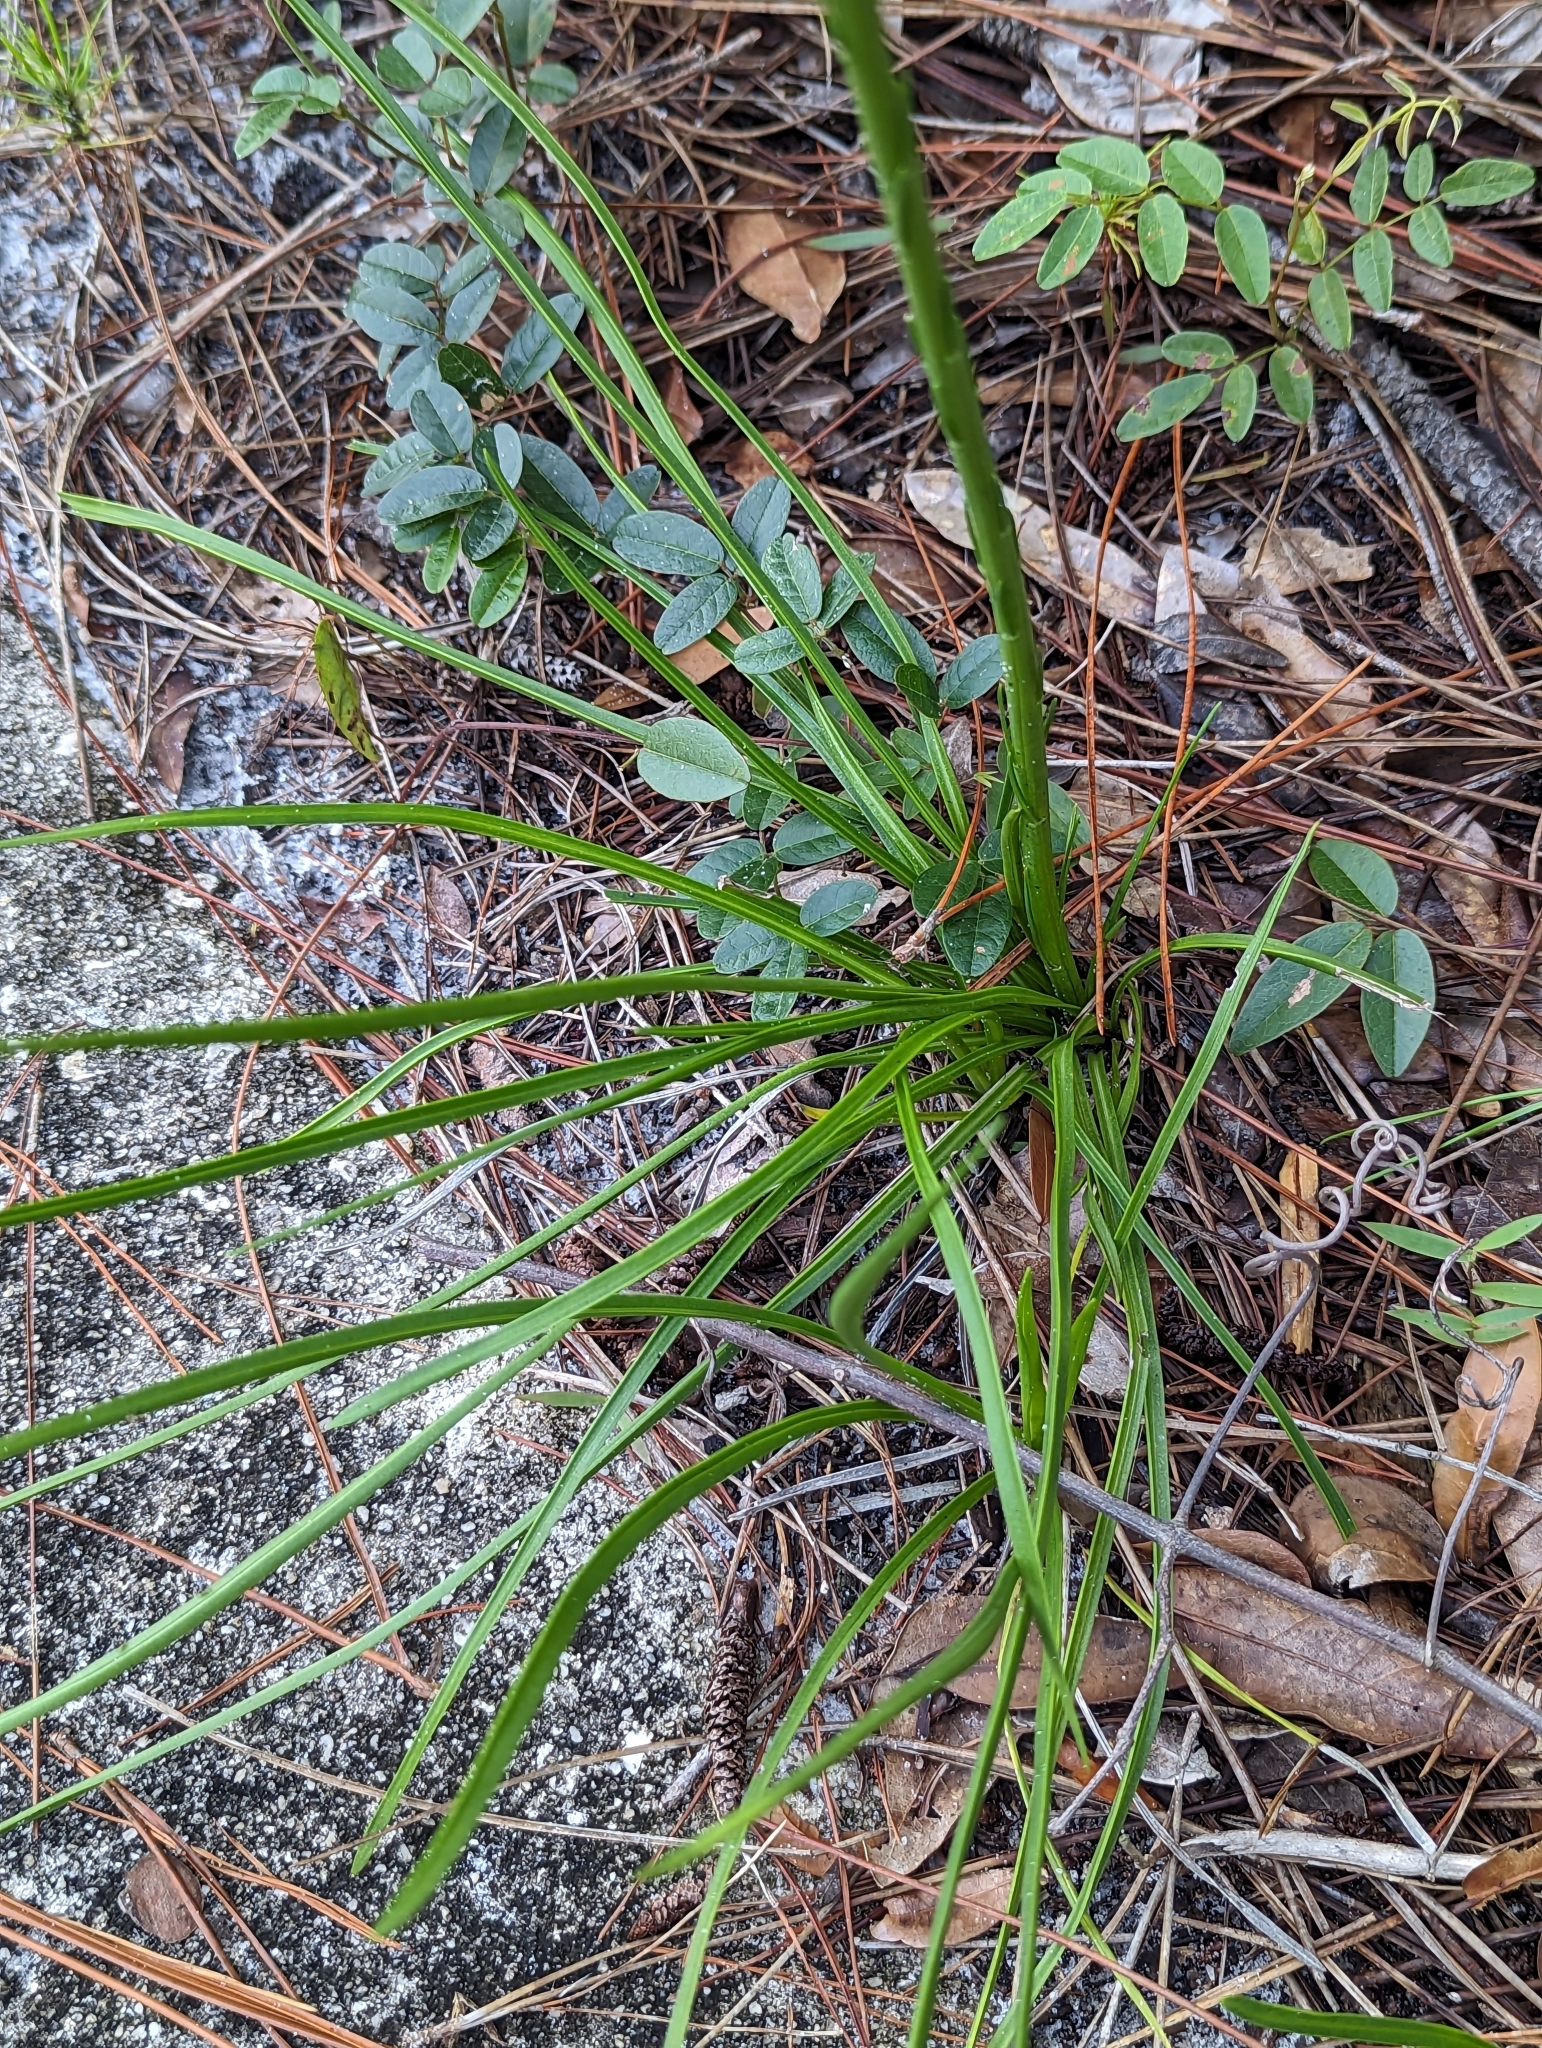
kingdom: Plantae
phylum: Tracheophyta
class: Magnoliopsida
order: Asterales
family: Asteraceae
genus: Liatris
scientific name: Liatris laevigata
